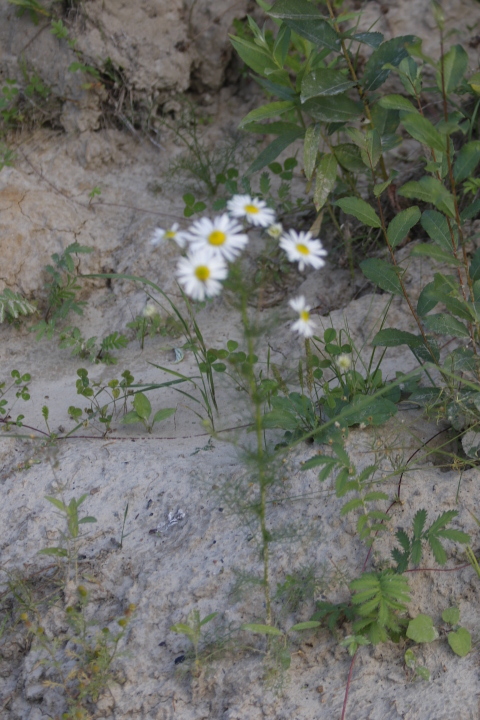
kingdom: Plantae
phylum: Tracheophyta
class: Magnoliopsida
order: Rosales
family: Rosaceae
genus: Argentina
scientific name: Argentina anserina
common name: Common silverweed
